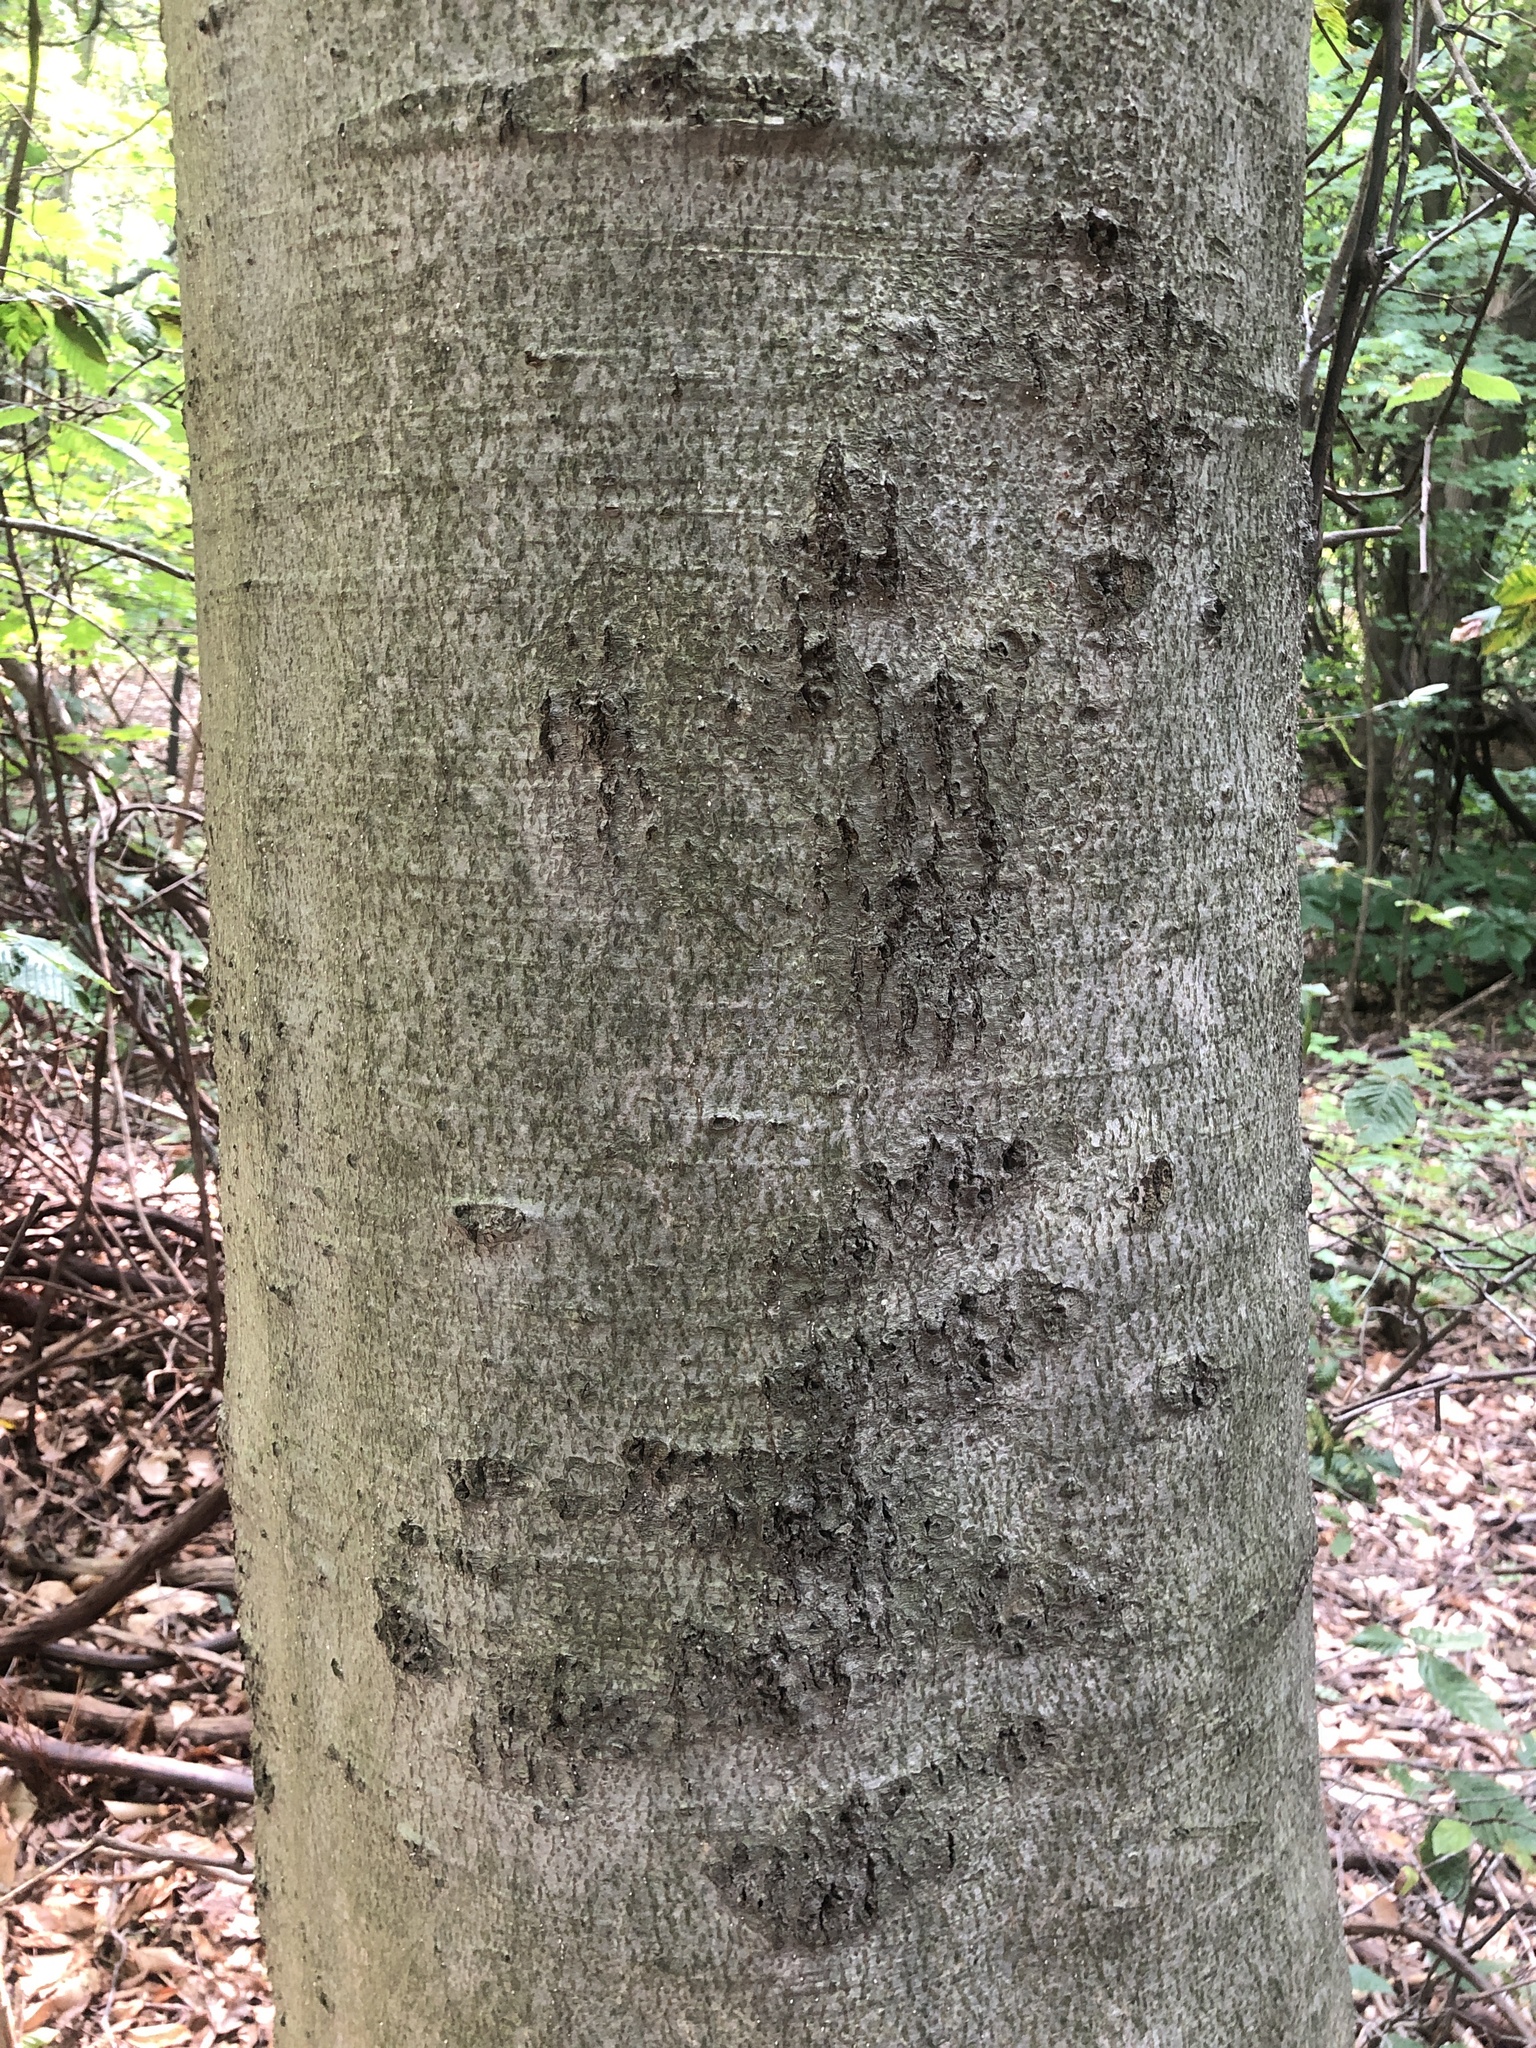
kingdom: Plantae
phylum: Tracheophyta
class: Magnoliopsida
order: Fagales
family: Fagaceae
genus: Fagus
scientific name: Fagus grandifolia
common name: American beech
